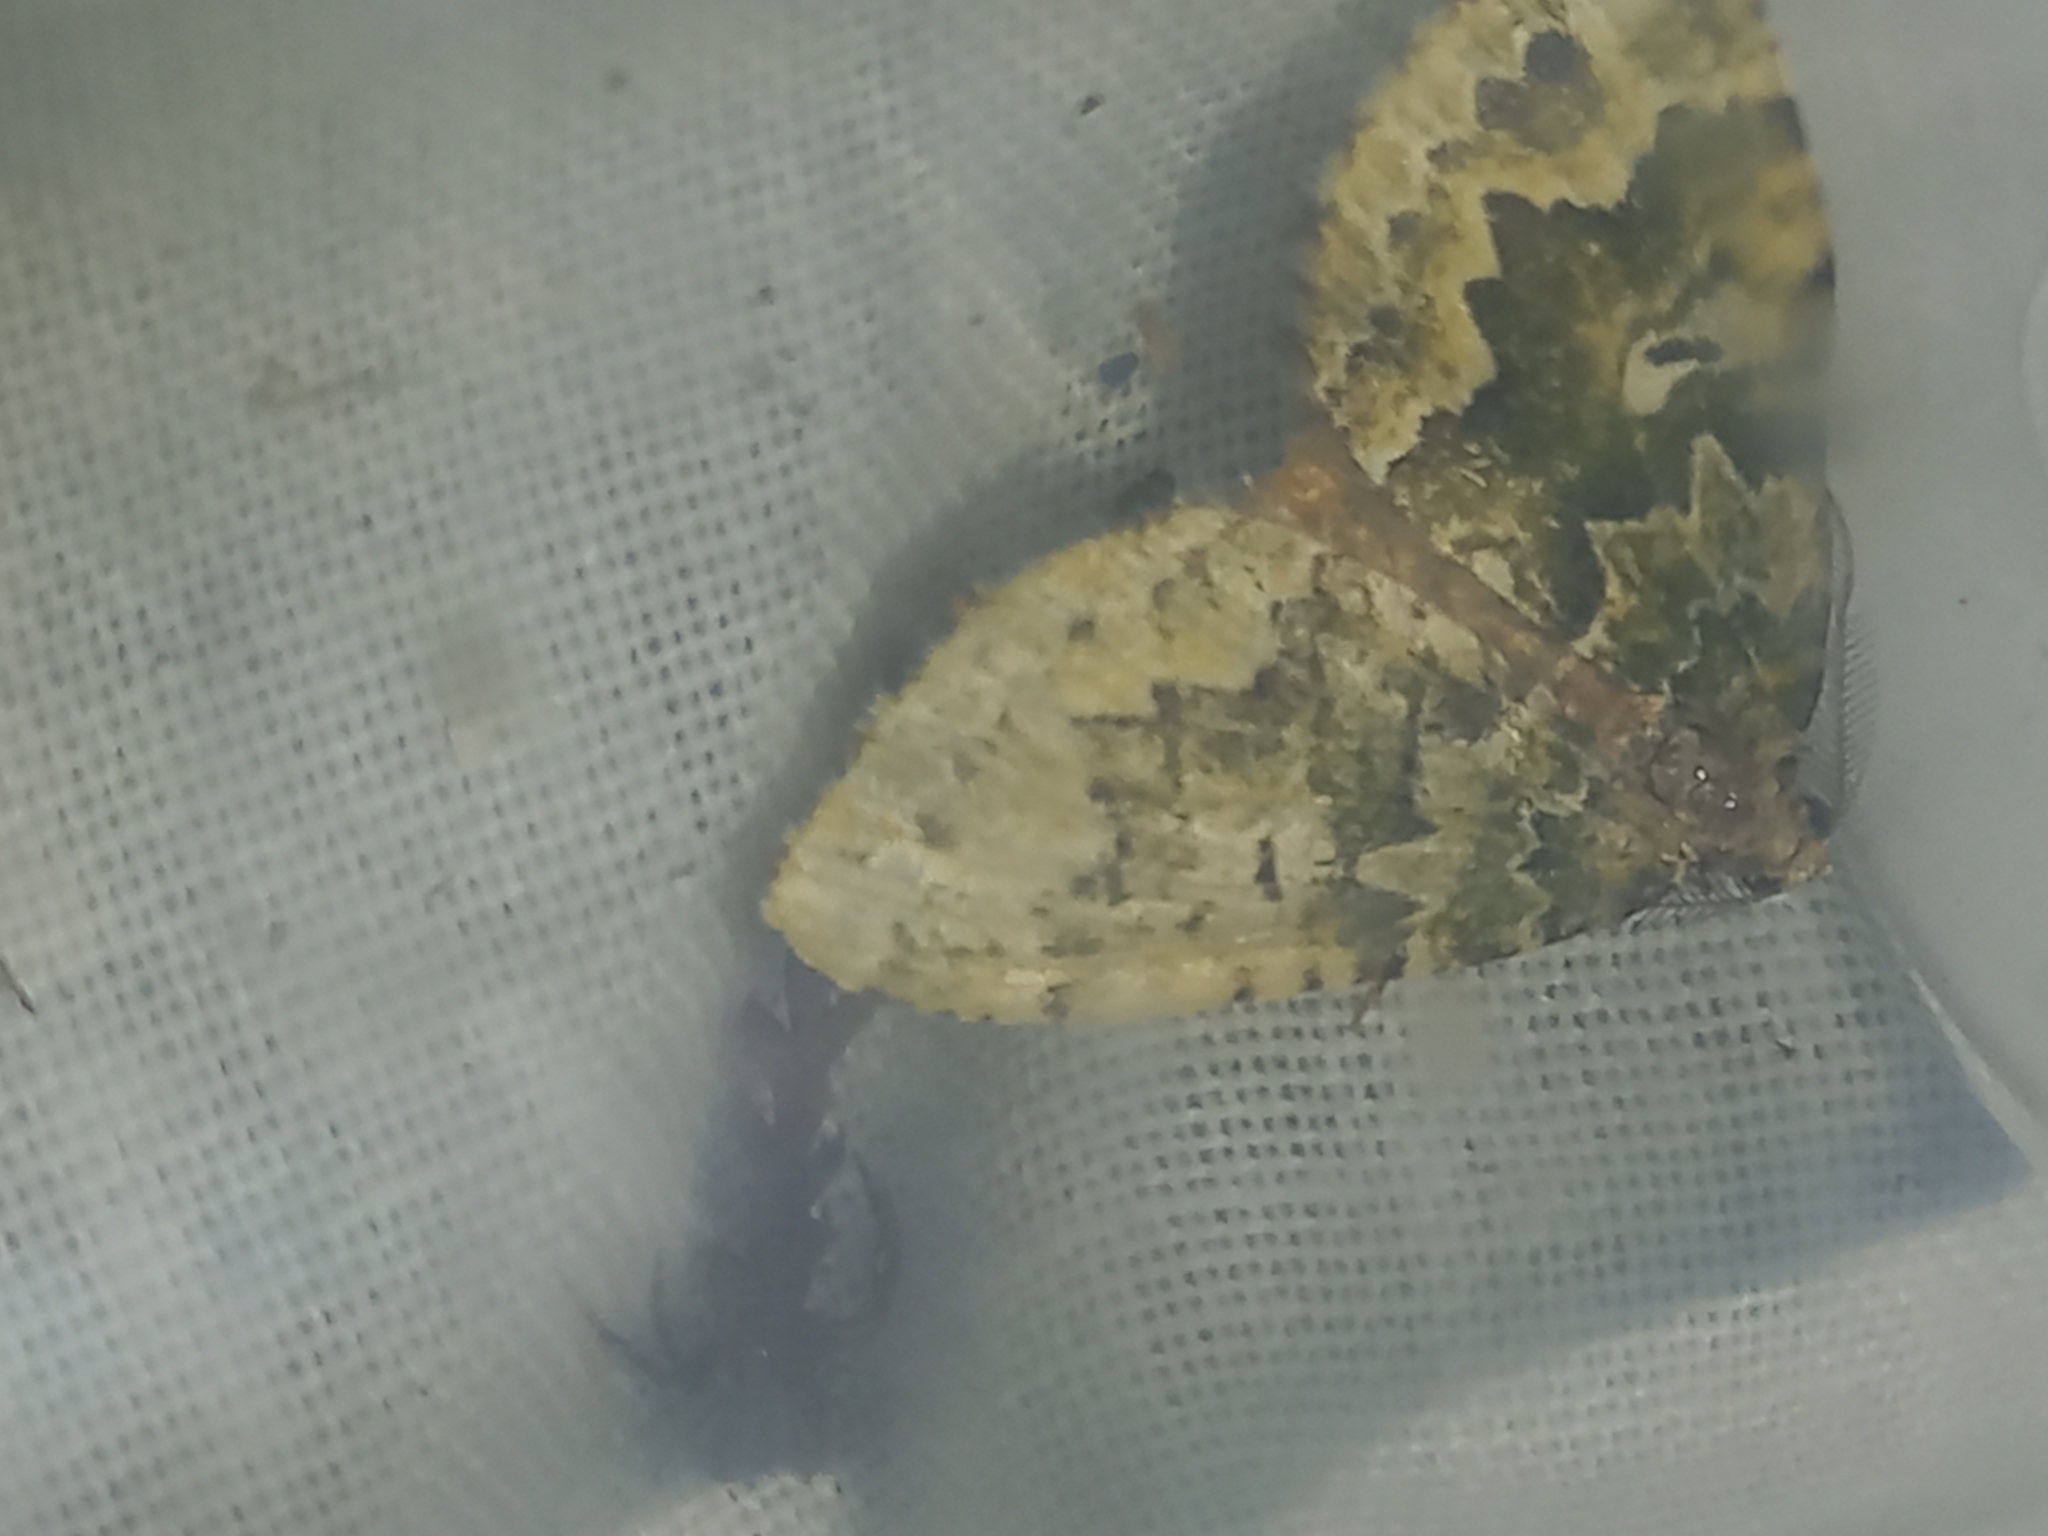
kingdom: Animalia
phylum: Arthropoda
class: Insecta
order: Lepidoptera
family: Geometridae
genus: Asaphodes
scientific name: Asaphodes beata
